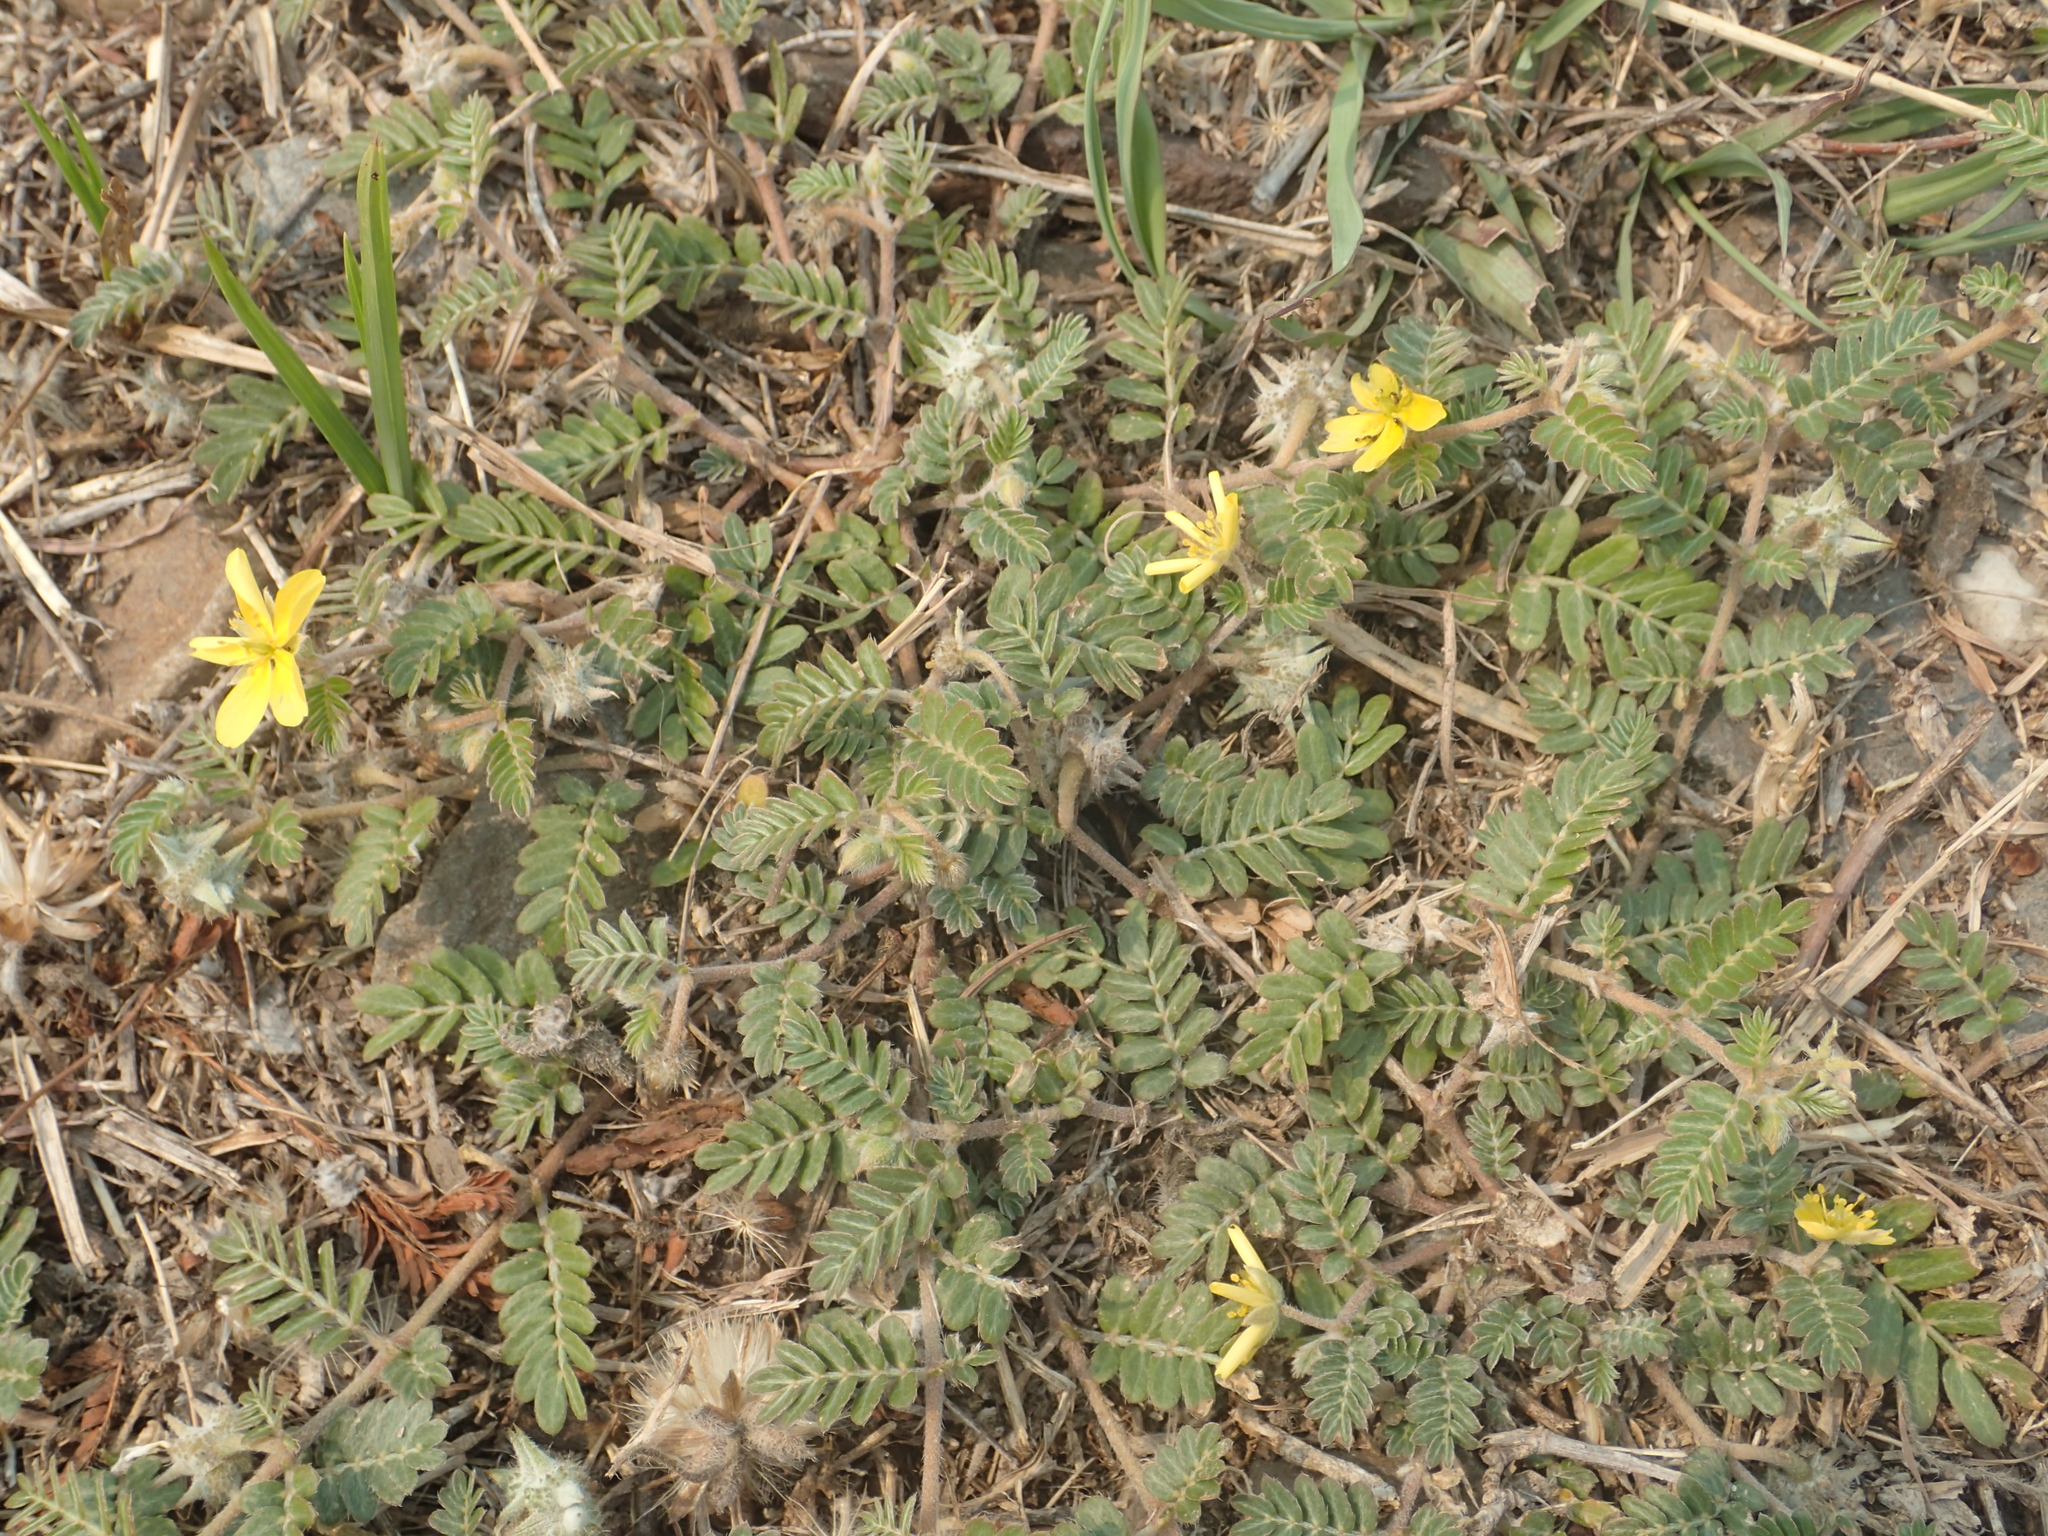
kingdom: Plantae
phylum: Tracheophyta
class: Magnoliopsida
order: Zygophyllales
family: Zygophyllaceae
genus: Tribulus
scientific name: Tribulus cistoides
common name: Jamaican feverplant
